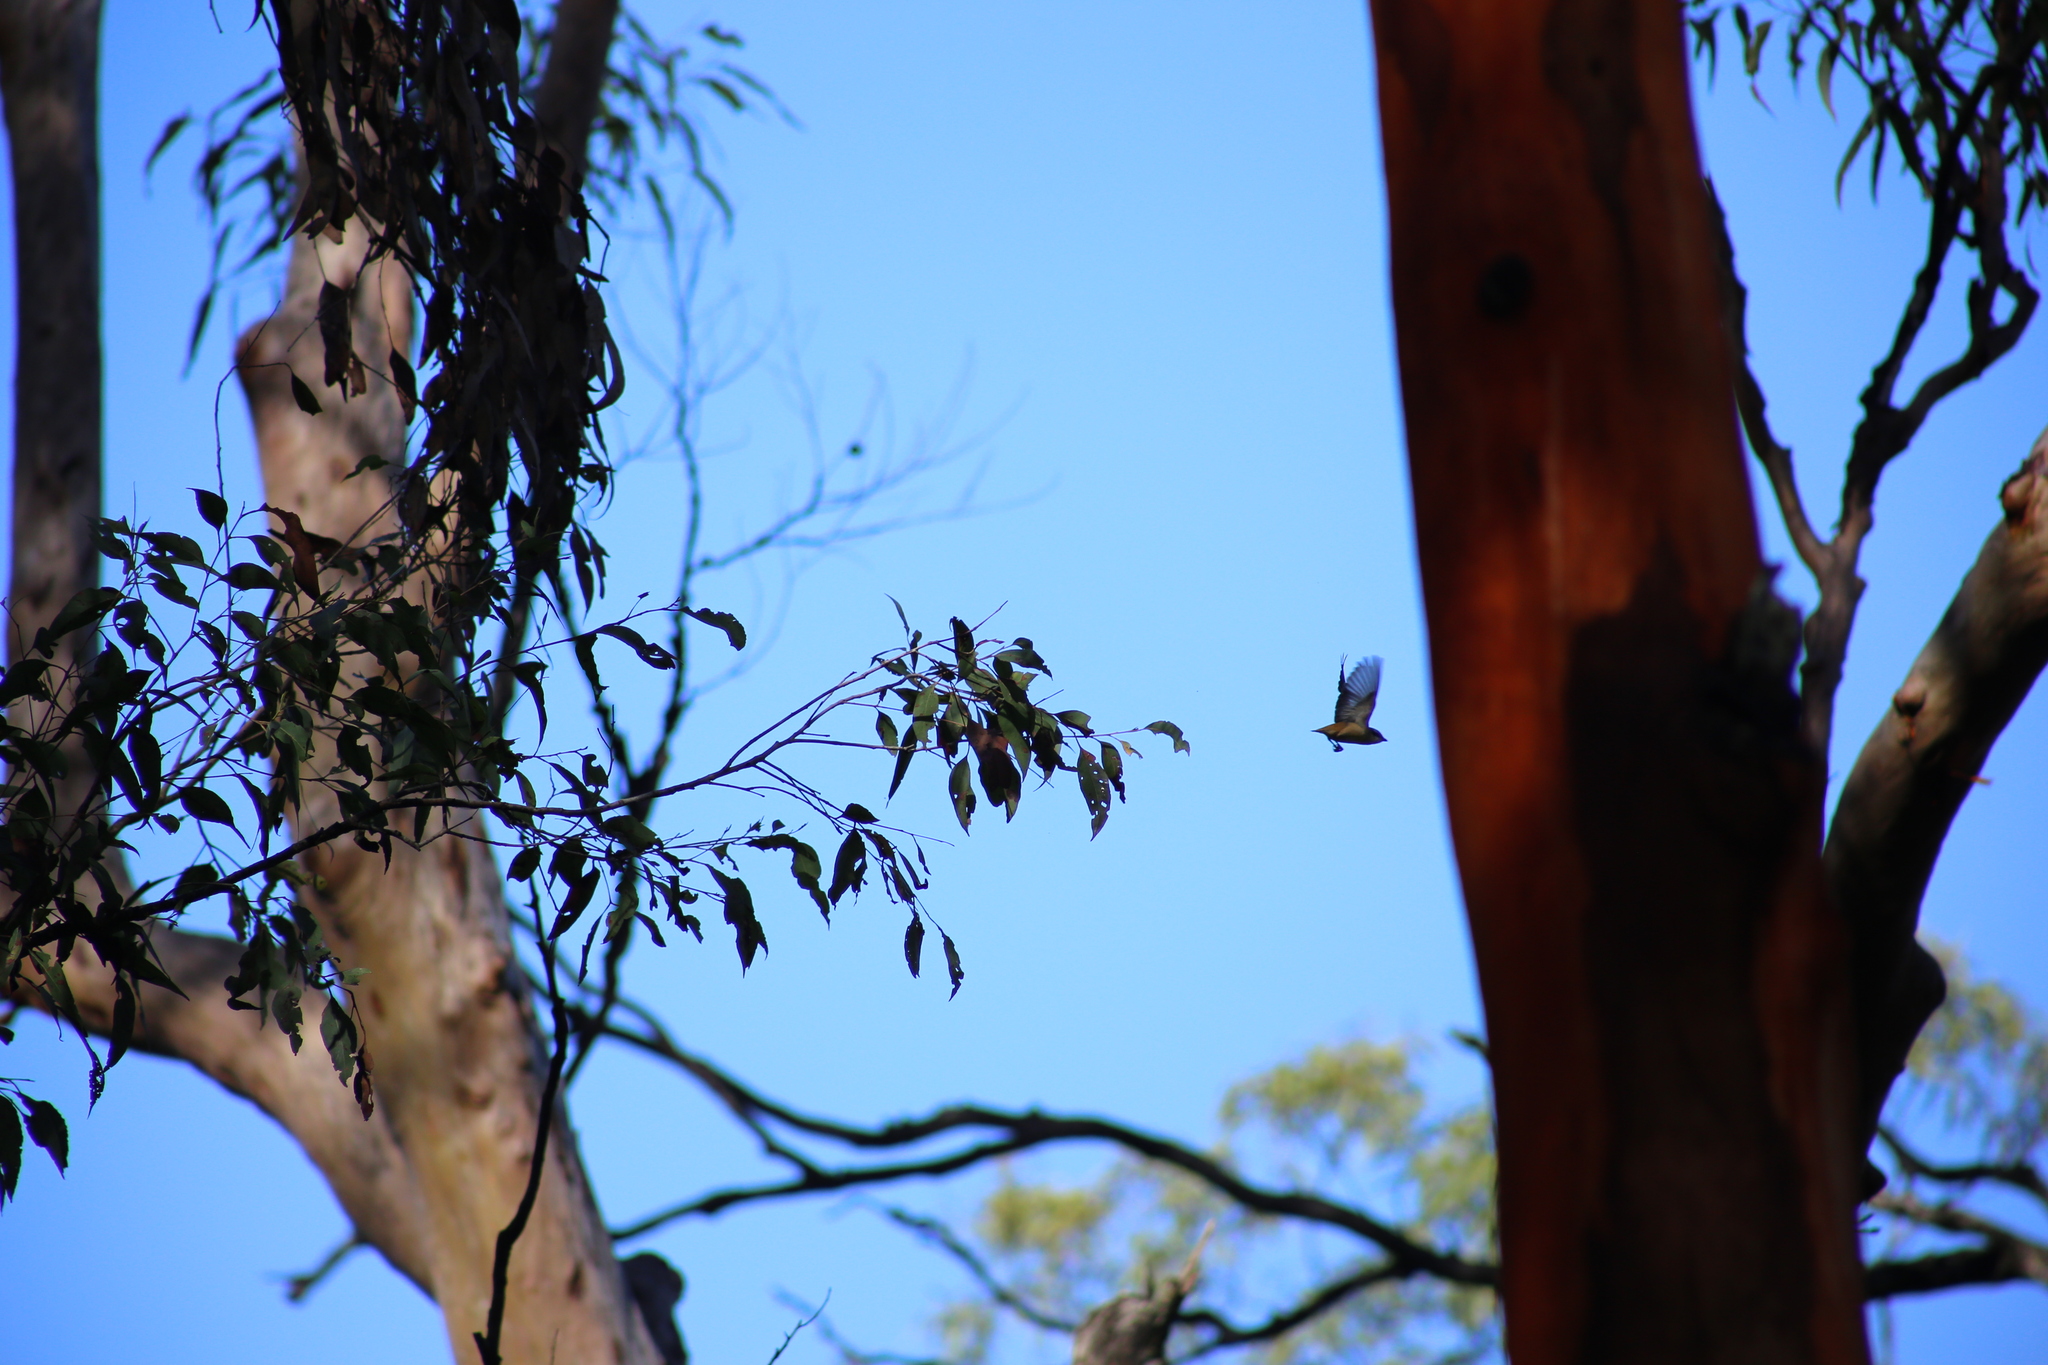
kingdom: Animalia
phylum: Chordata
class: Aves
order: Passeriformes
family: Pardalotidae
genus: Pardalotus
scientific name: Pardalotus striatus
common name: Striated pardalote
